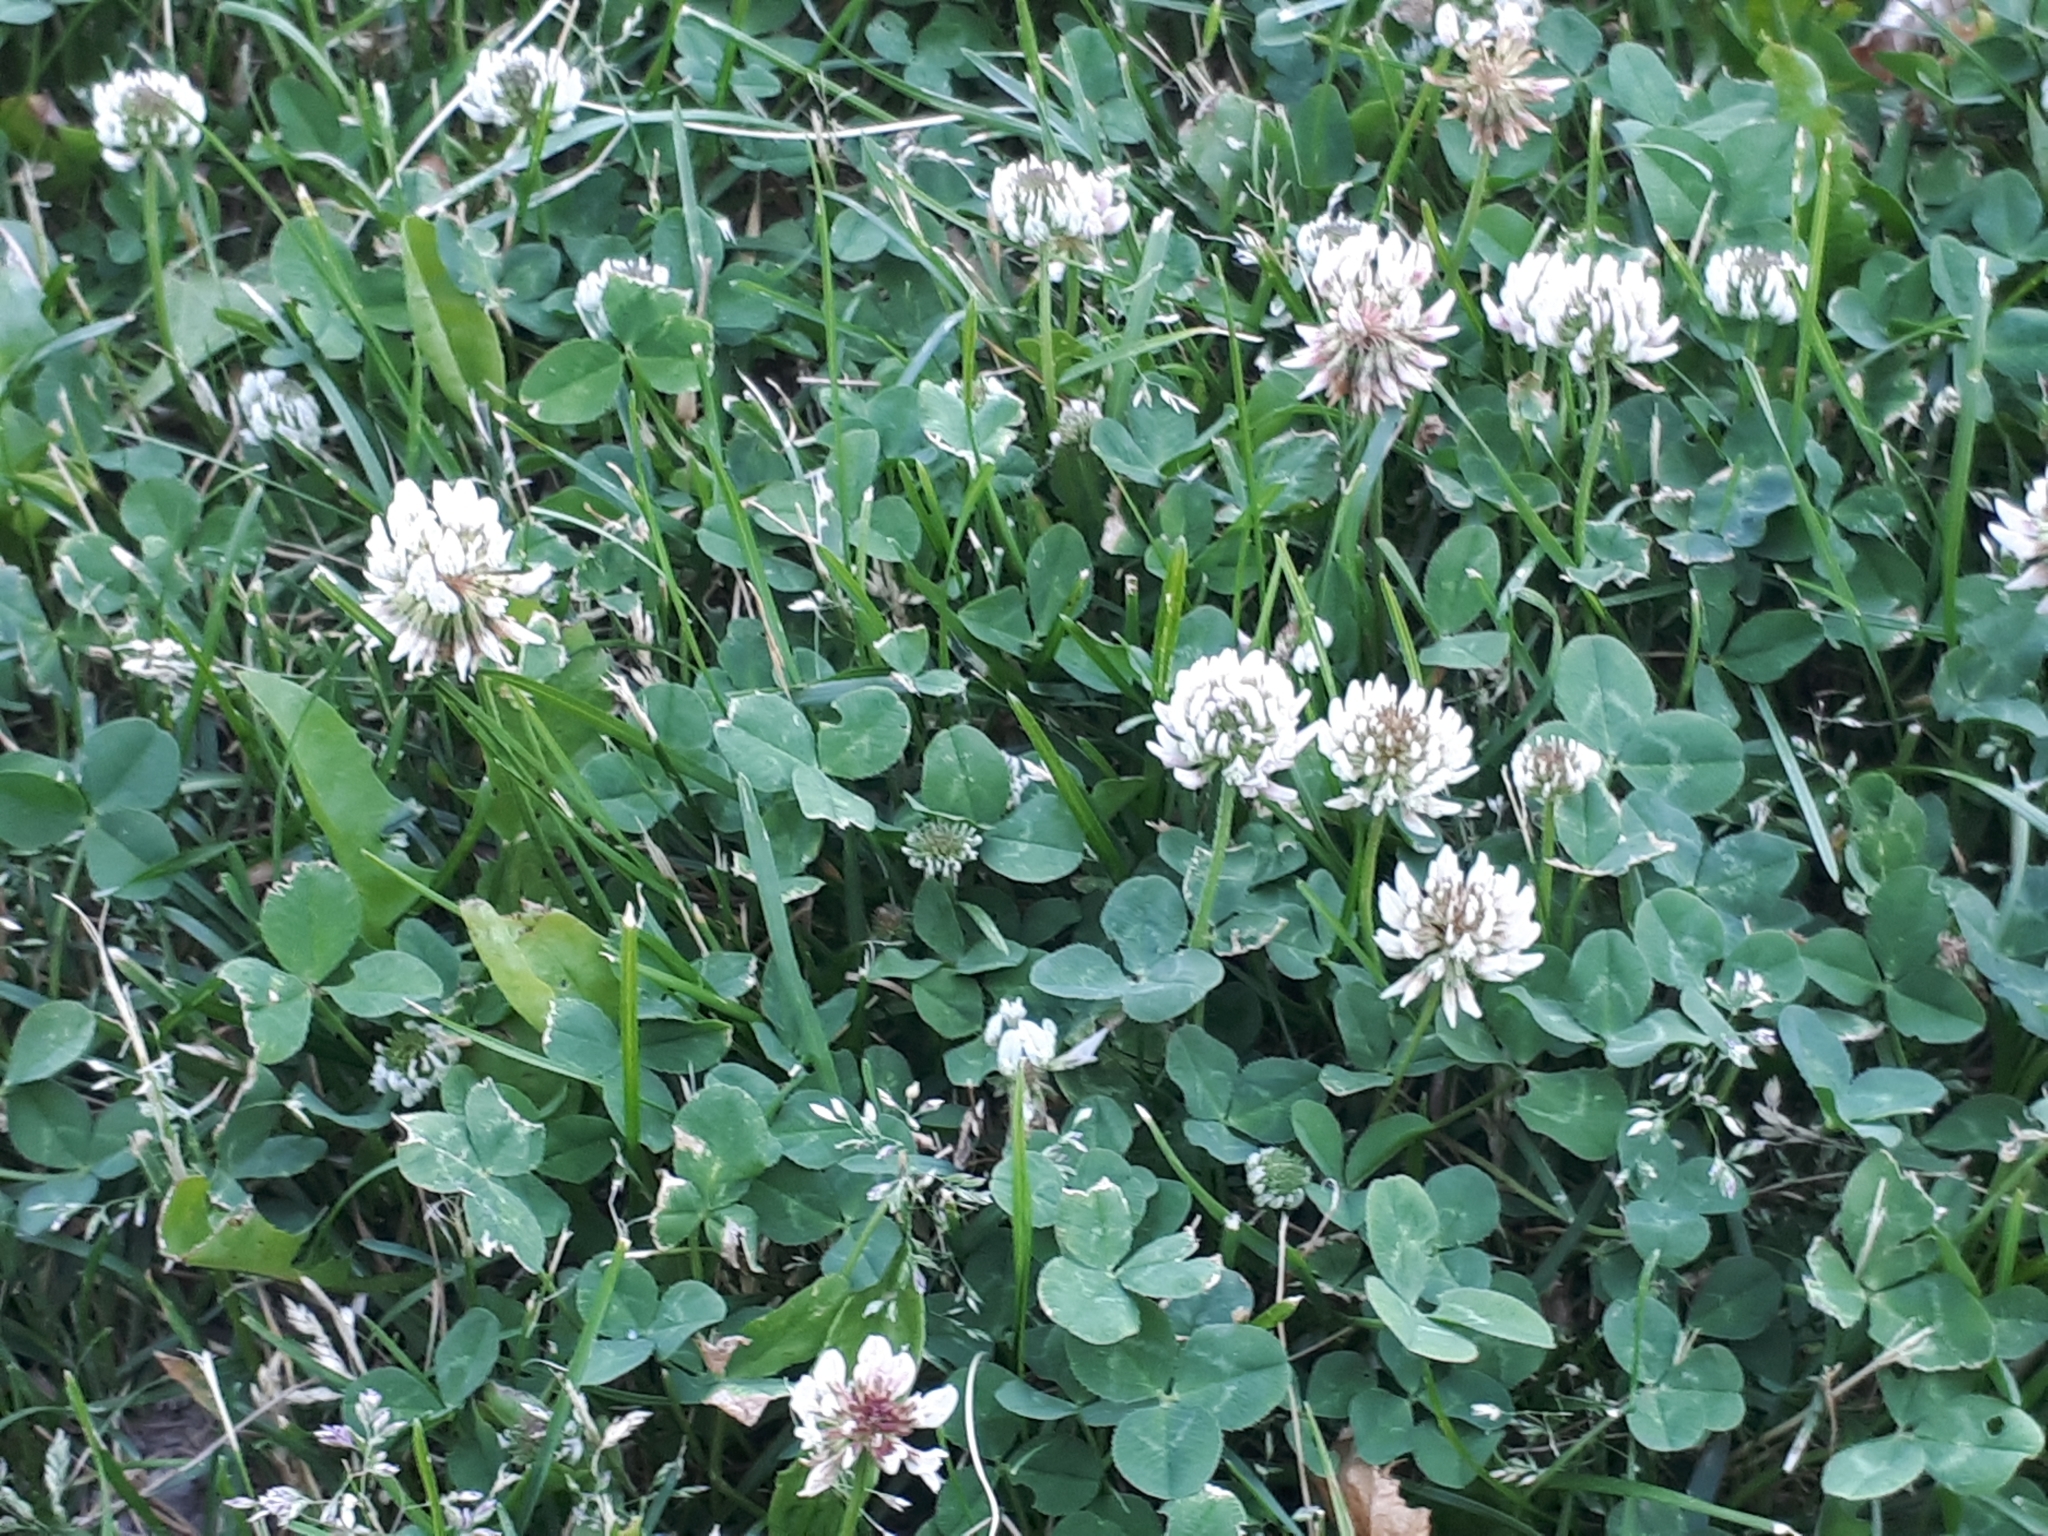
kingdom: Plantae
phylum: Tracheophyta
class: Magnoliopsida
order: Fabales
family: Fabaceae
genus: Trifolium
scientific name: Trifolium repens
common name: White clover
